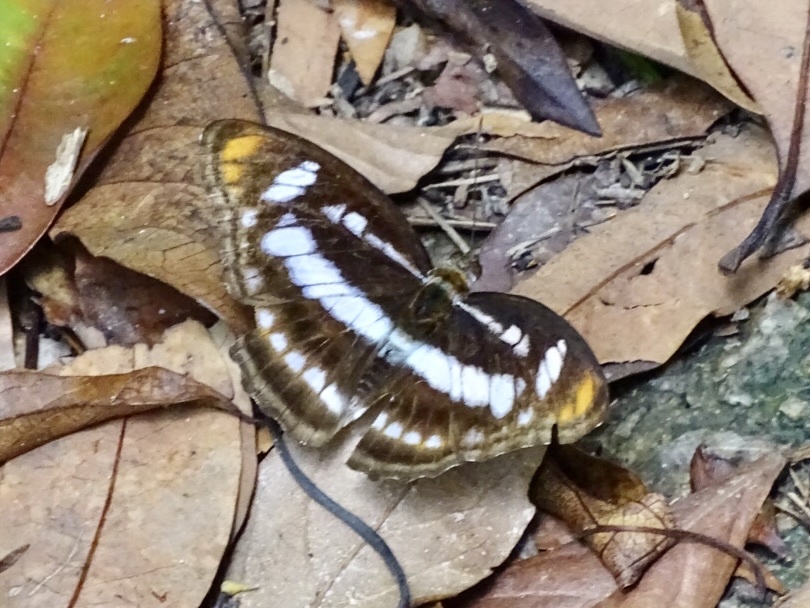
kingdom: Animalia
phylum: Arthropoda
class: Insecta
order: Lepidoptera
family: Nymphalidae
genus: Parathyma
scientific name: Parathyma nefte
